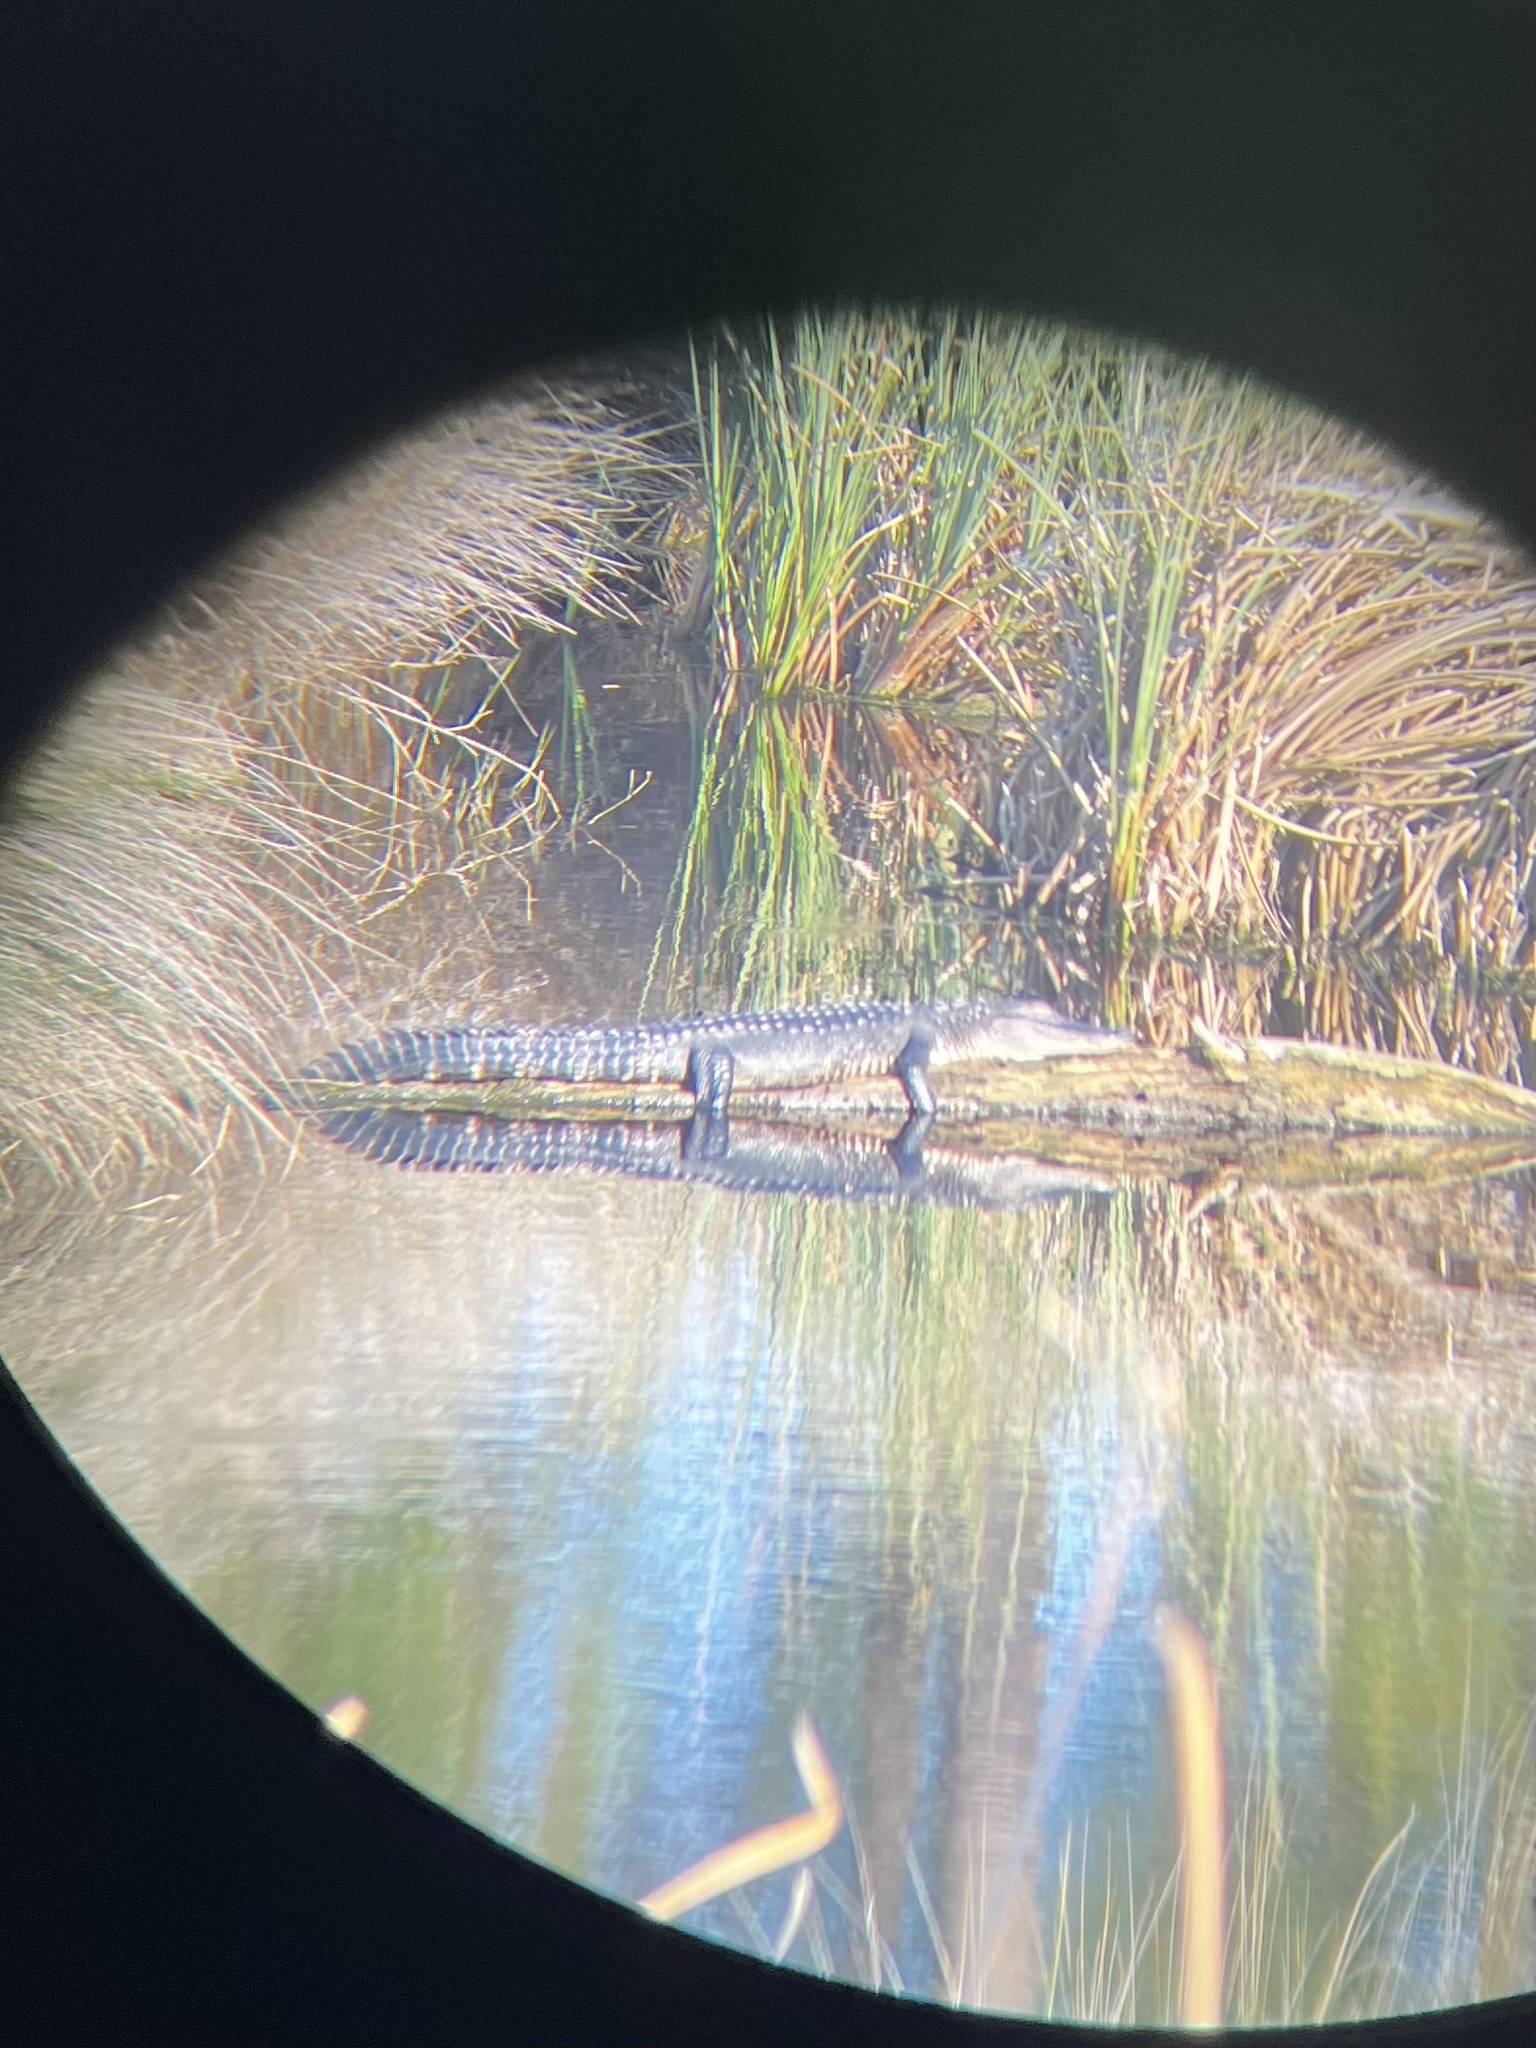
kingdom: Animalia
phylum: Chordata
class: Crocodylia
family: Alligatoridae
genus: Alligator
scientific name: Alligator mississippiensis
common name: American alligator
